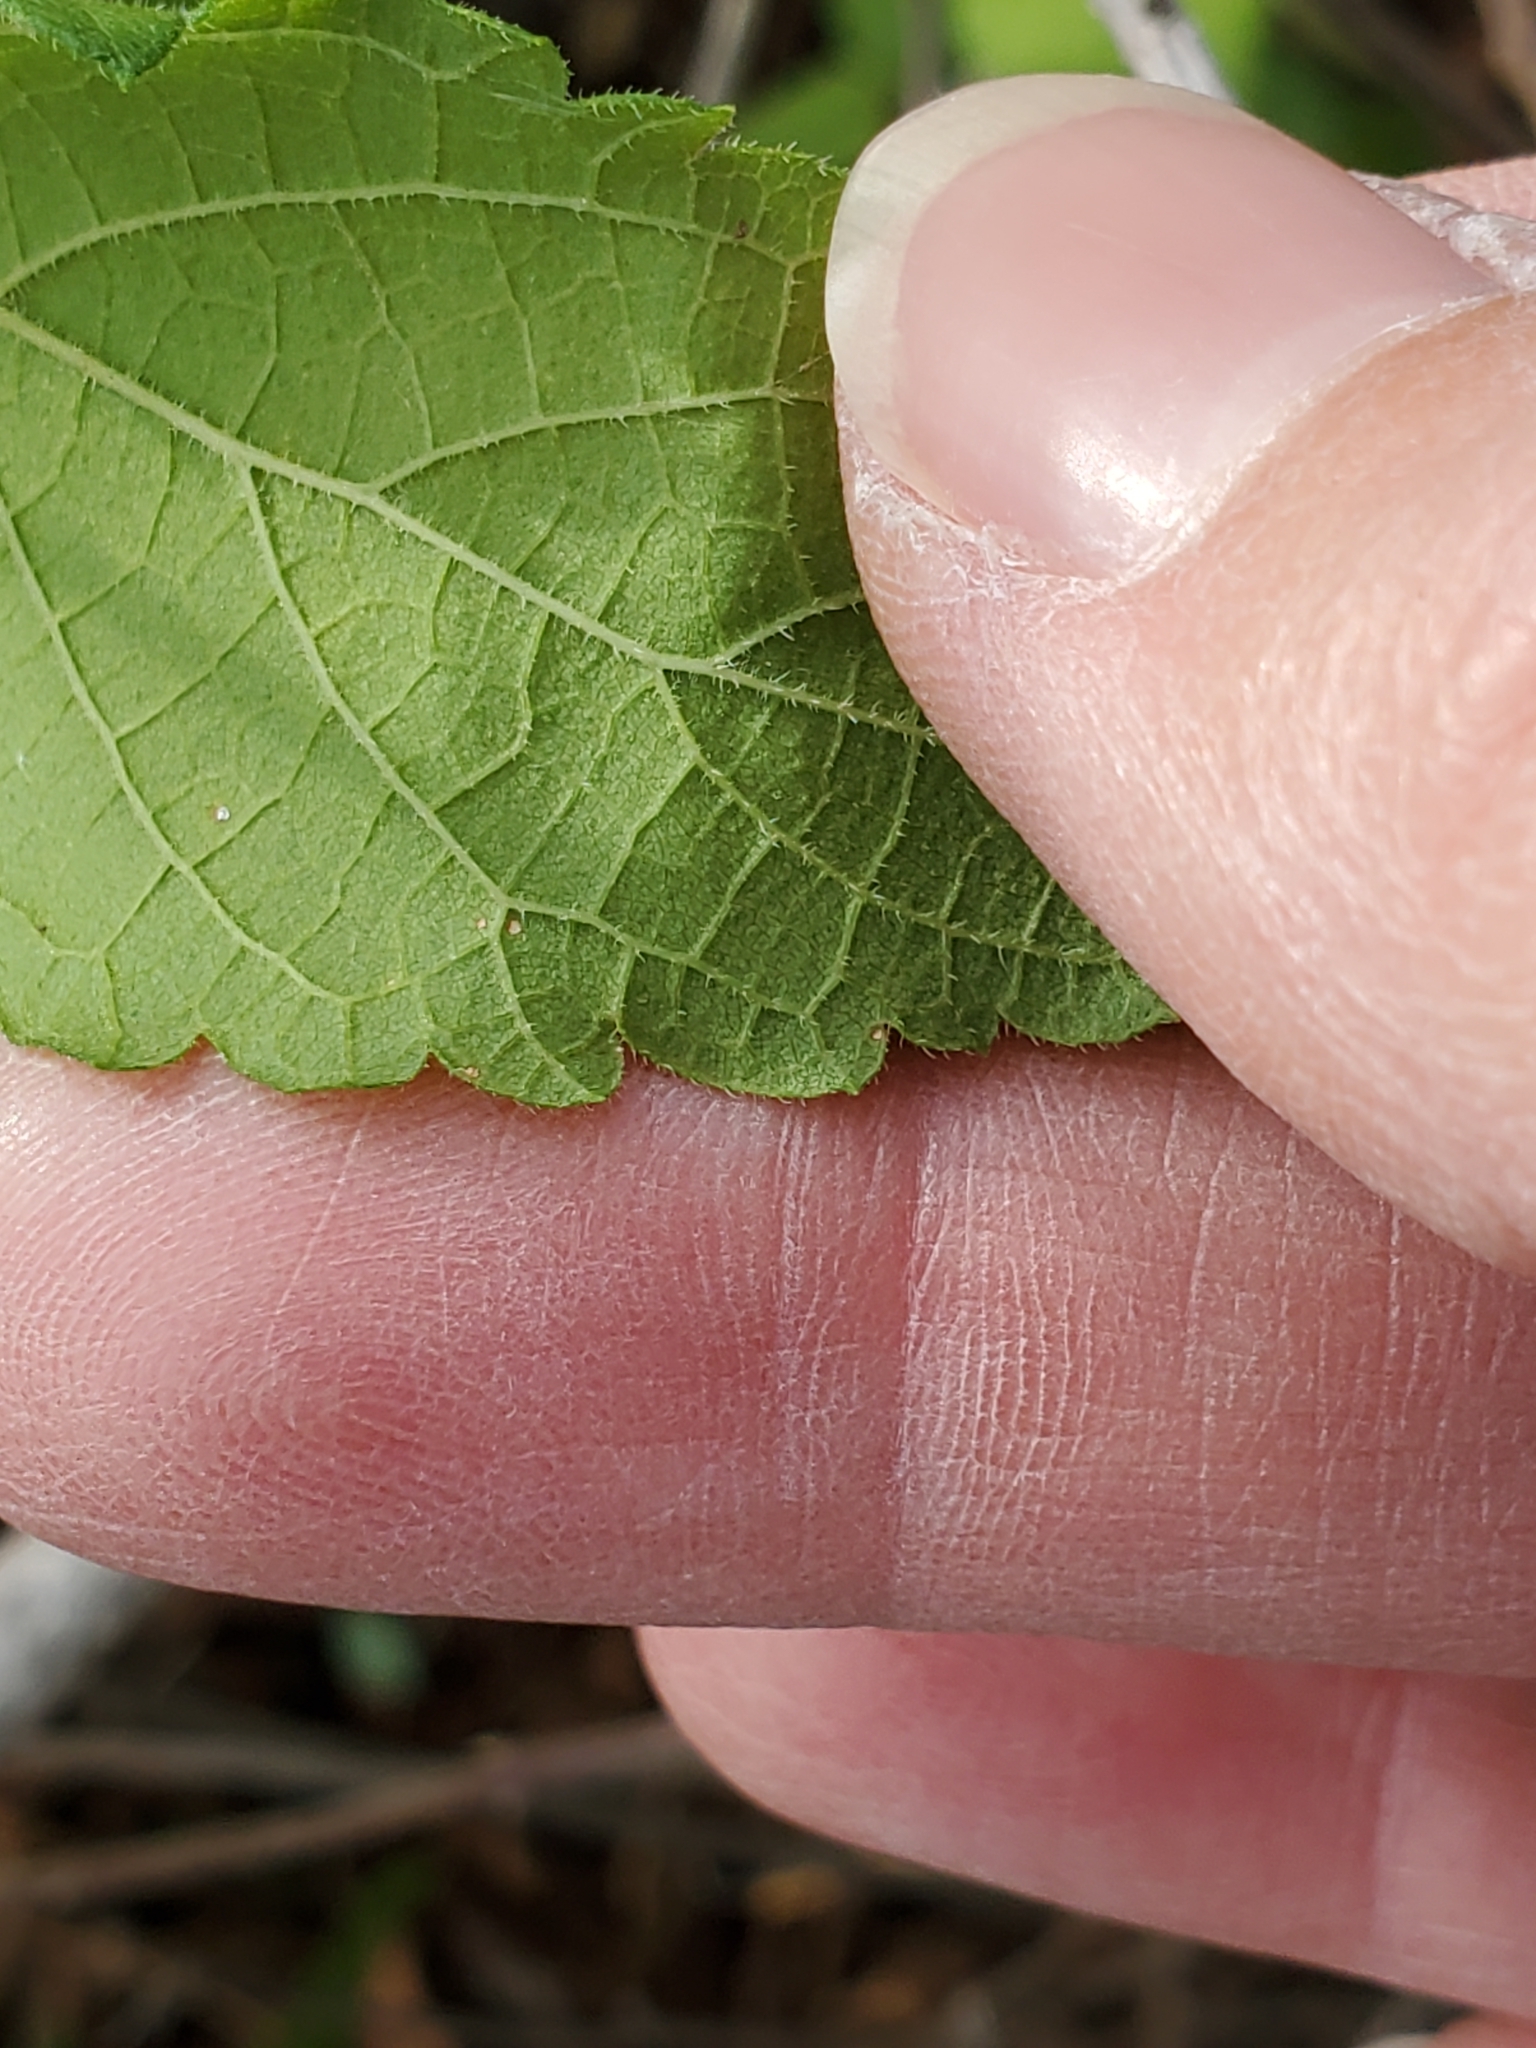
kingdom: Plantae
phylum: Tracheophyta
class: Magnoliopsida
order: Rosales
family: Cannabaceae
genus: Celtis
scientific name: Celtis reticulata
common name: Netleaf hackberry
